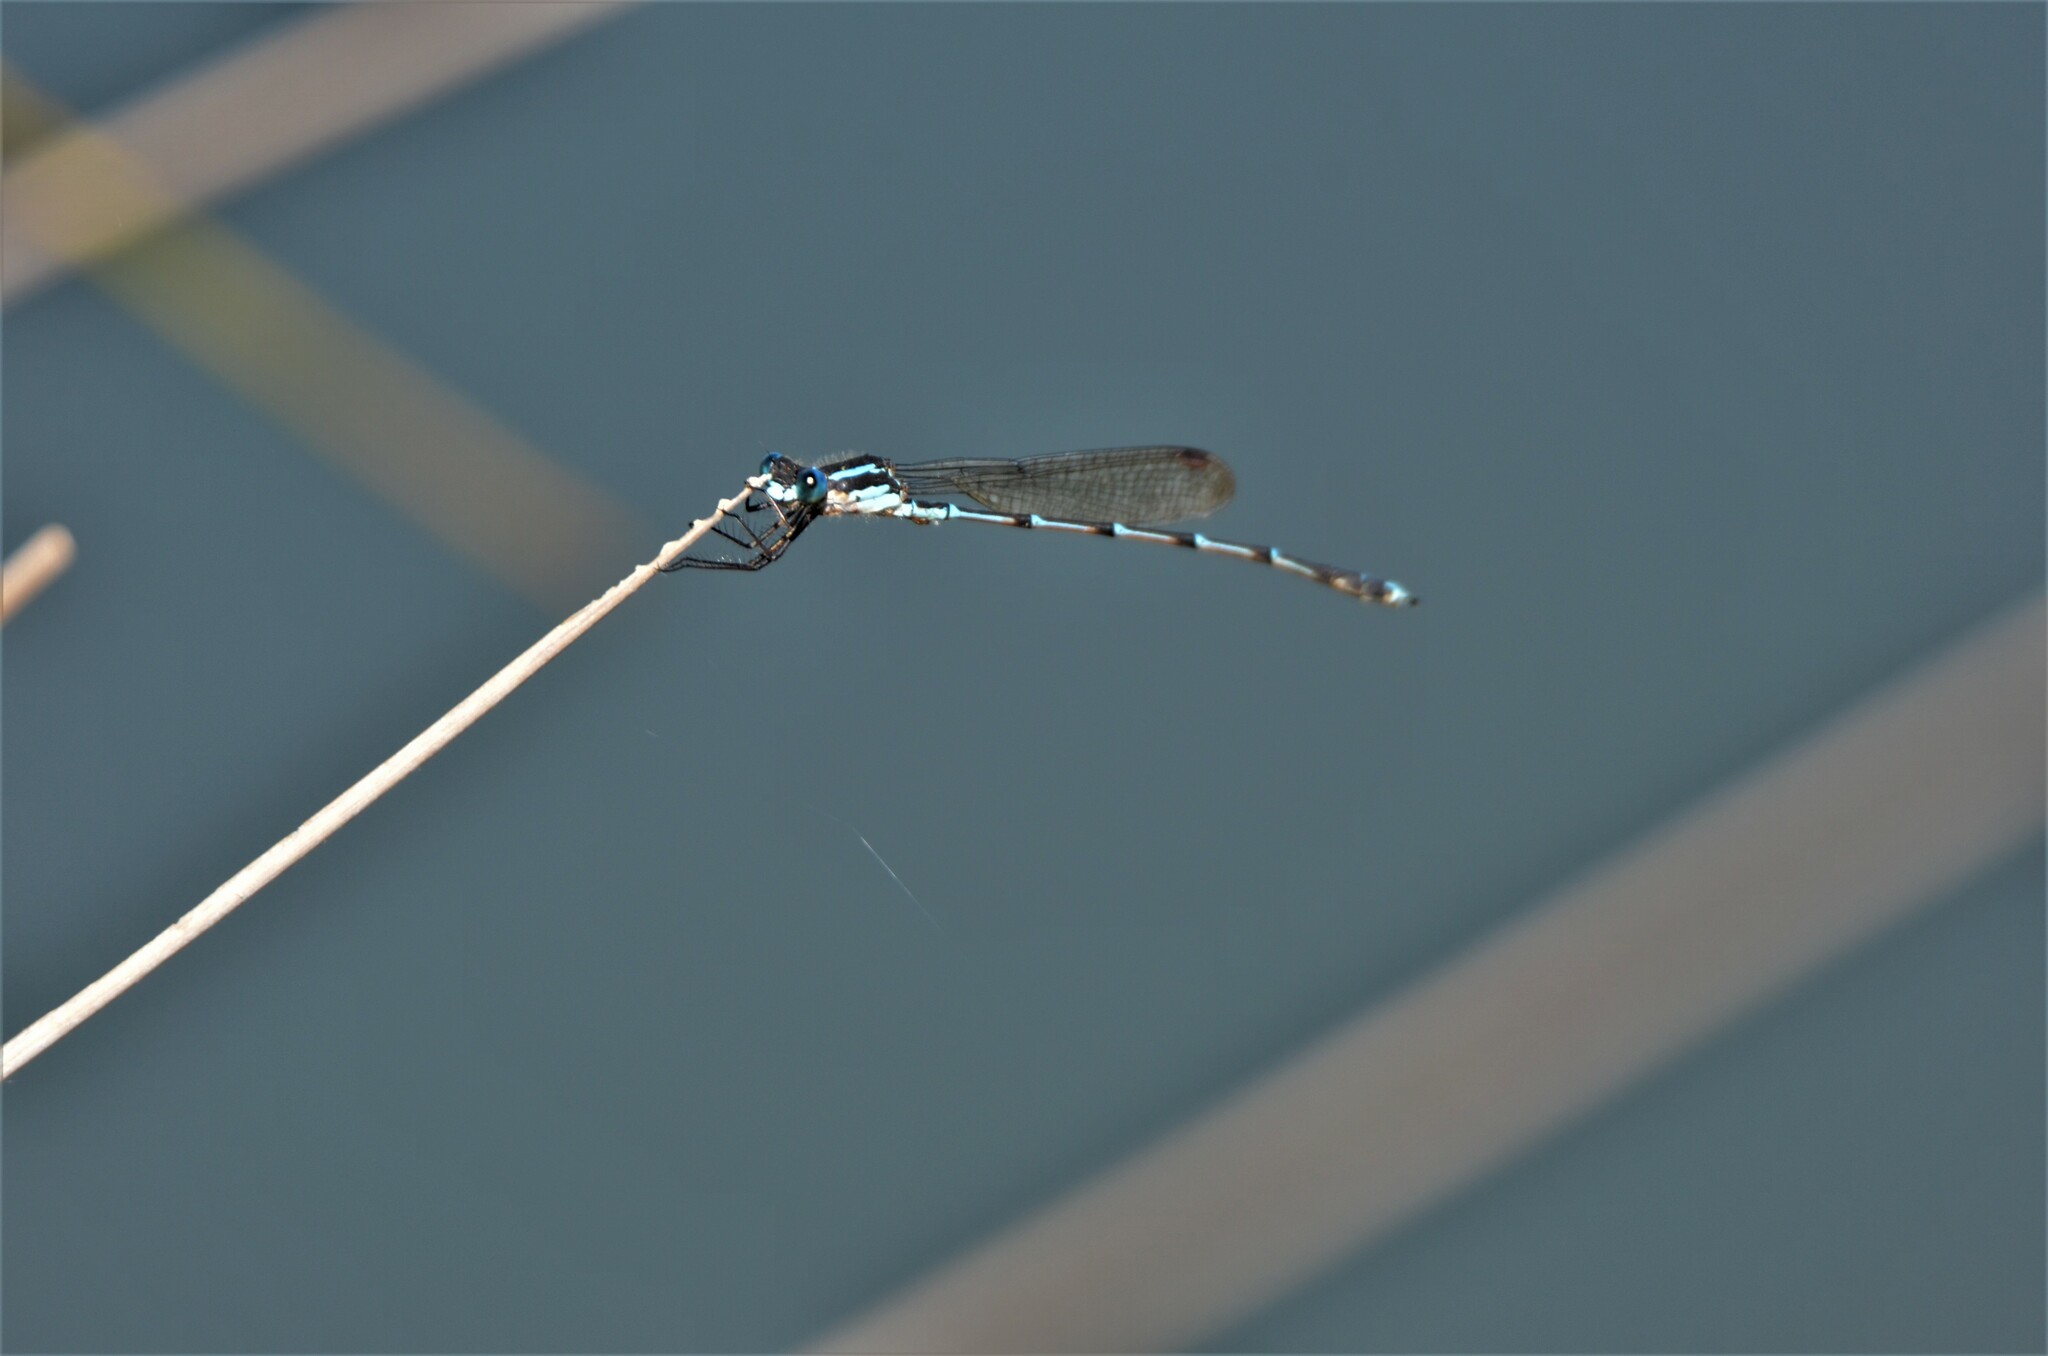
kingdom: Animalia
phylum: Arthropoda
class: Insecta
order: Odonata
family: Lestidae
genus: Austrolestes
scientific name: Austrolestes colensonis
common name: Blue damselfly
